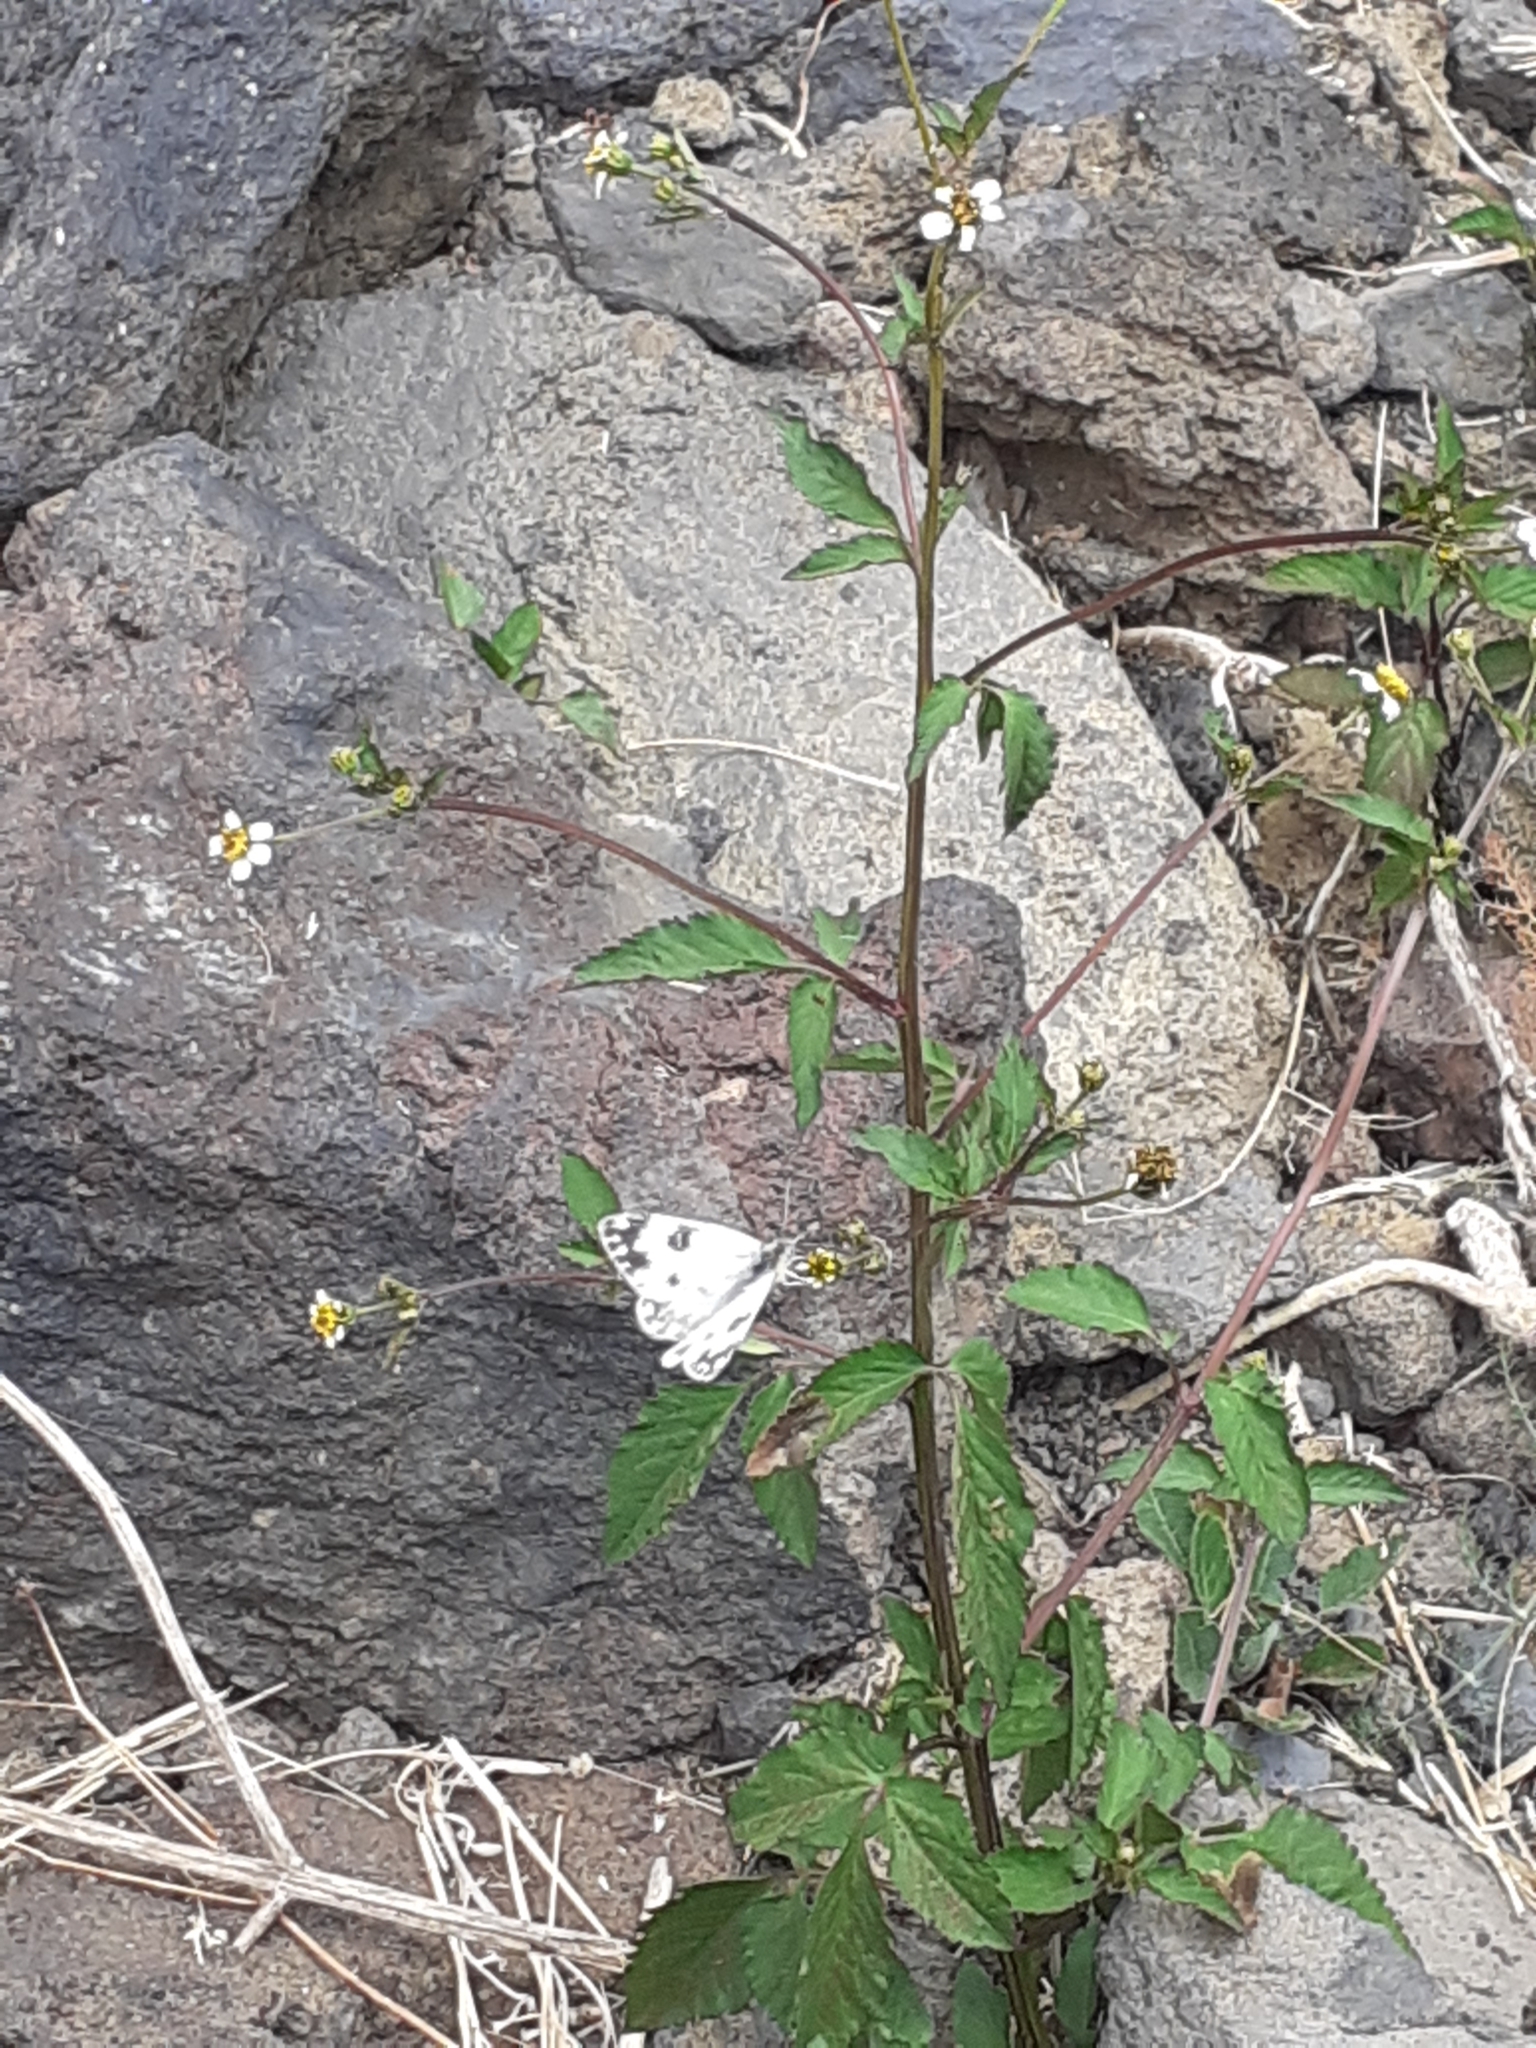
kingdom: Animalia
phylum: Arthropoda
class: Insecta
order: Lepidoptera
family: Pieridae
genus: Pontia
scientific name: Pontia daplidice
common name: Bath white
